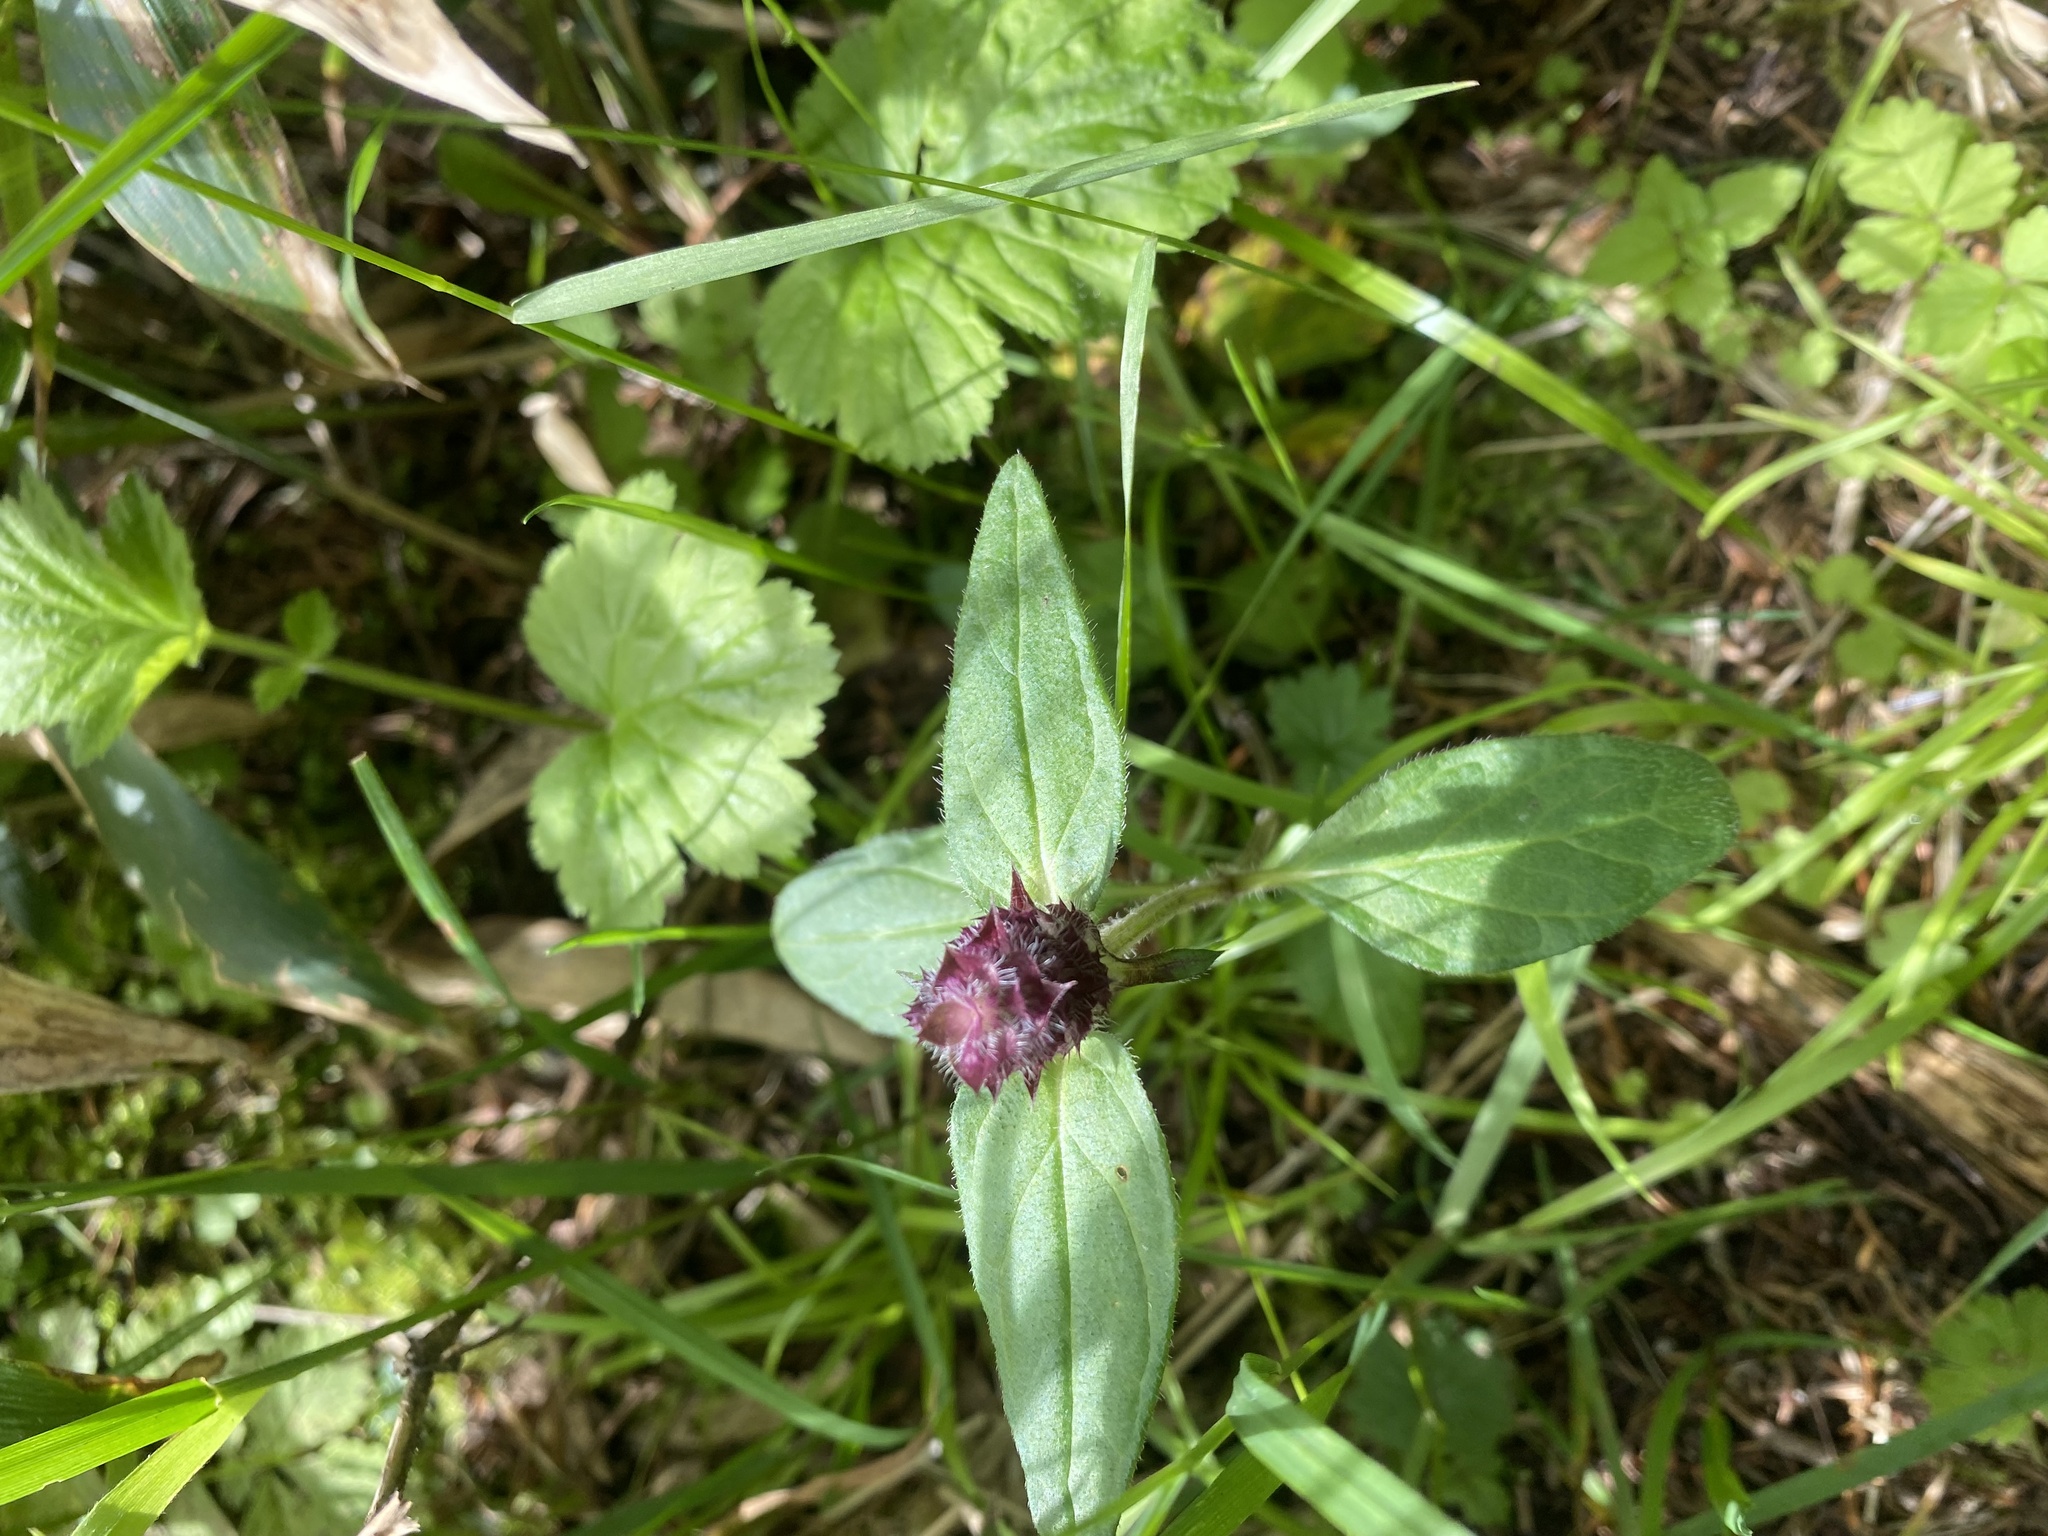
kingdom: Plantae
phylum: Tracheophyta
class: Magnoliopsida
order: Lamiales
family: Lamiaceae
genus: Prunella
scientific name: Prunella vulgaris
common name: Heal-all
